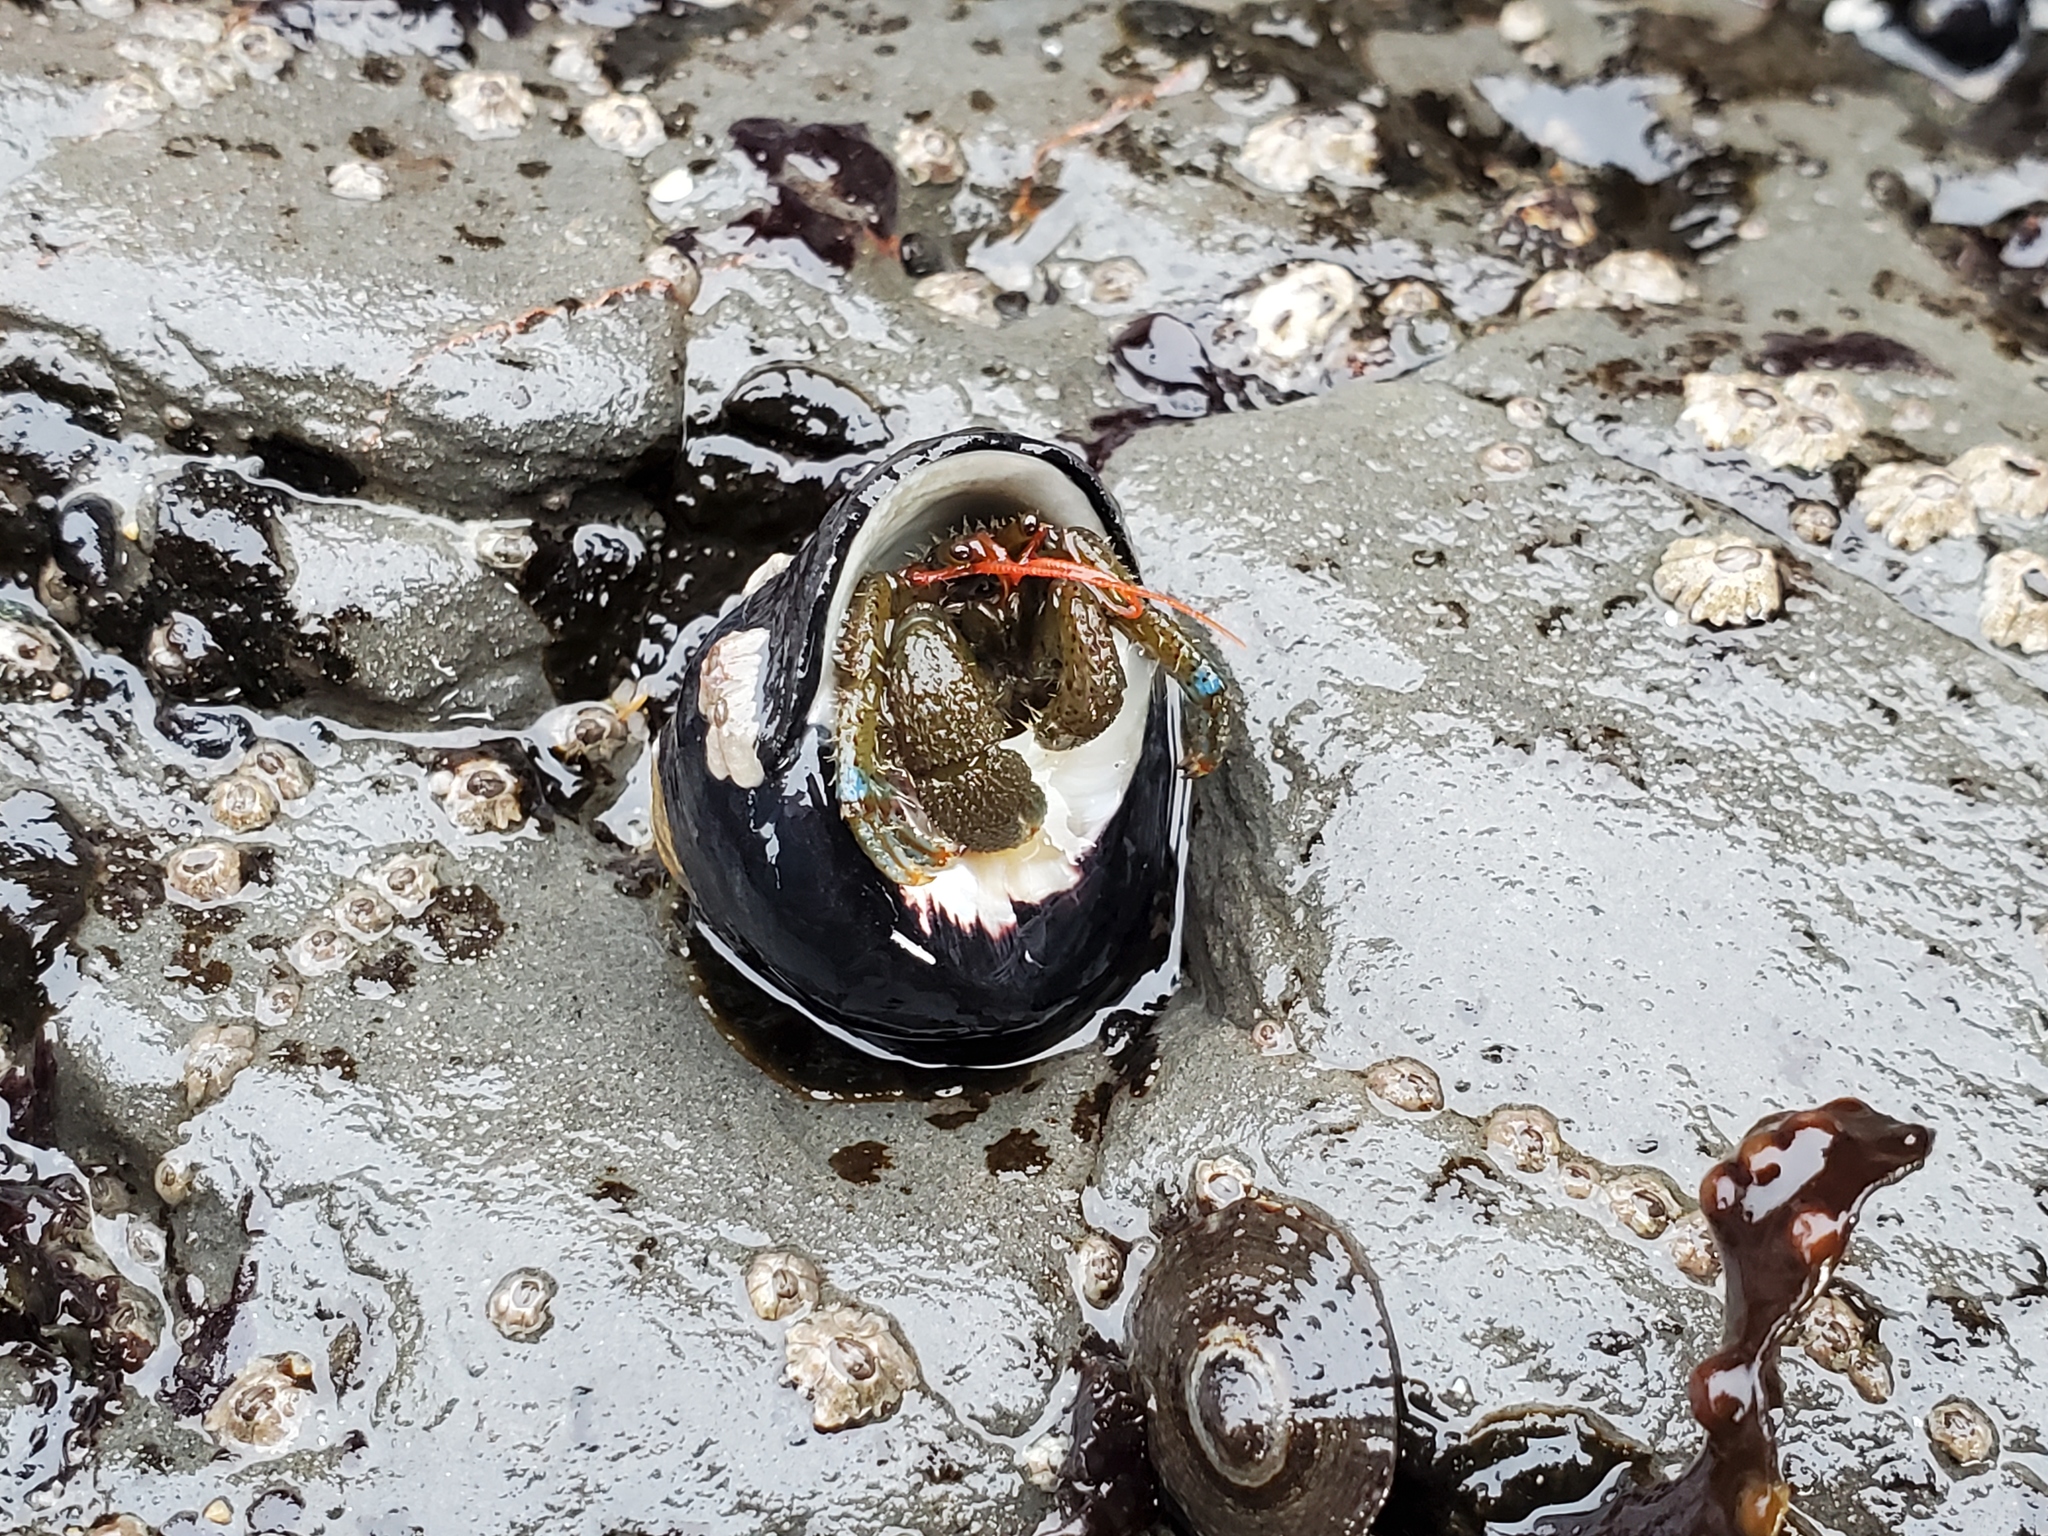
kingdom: Animalia
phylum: Arthropoda
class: Malacostraca
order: Decapoda
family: Paguridae
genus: Pagurus
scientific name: Pagurus samuelis
